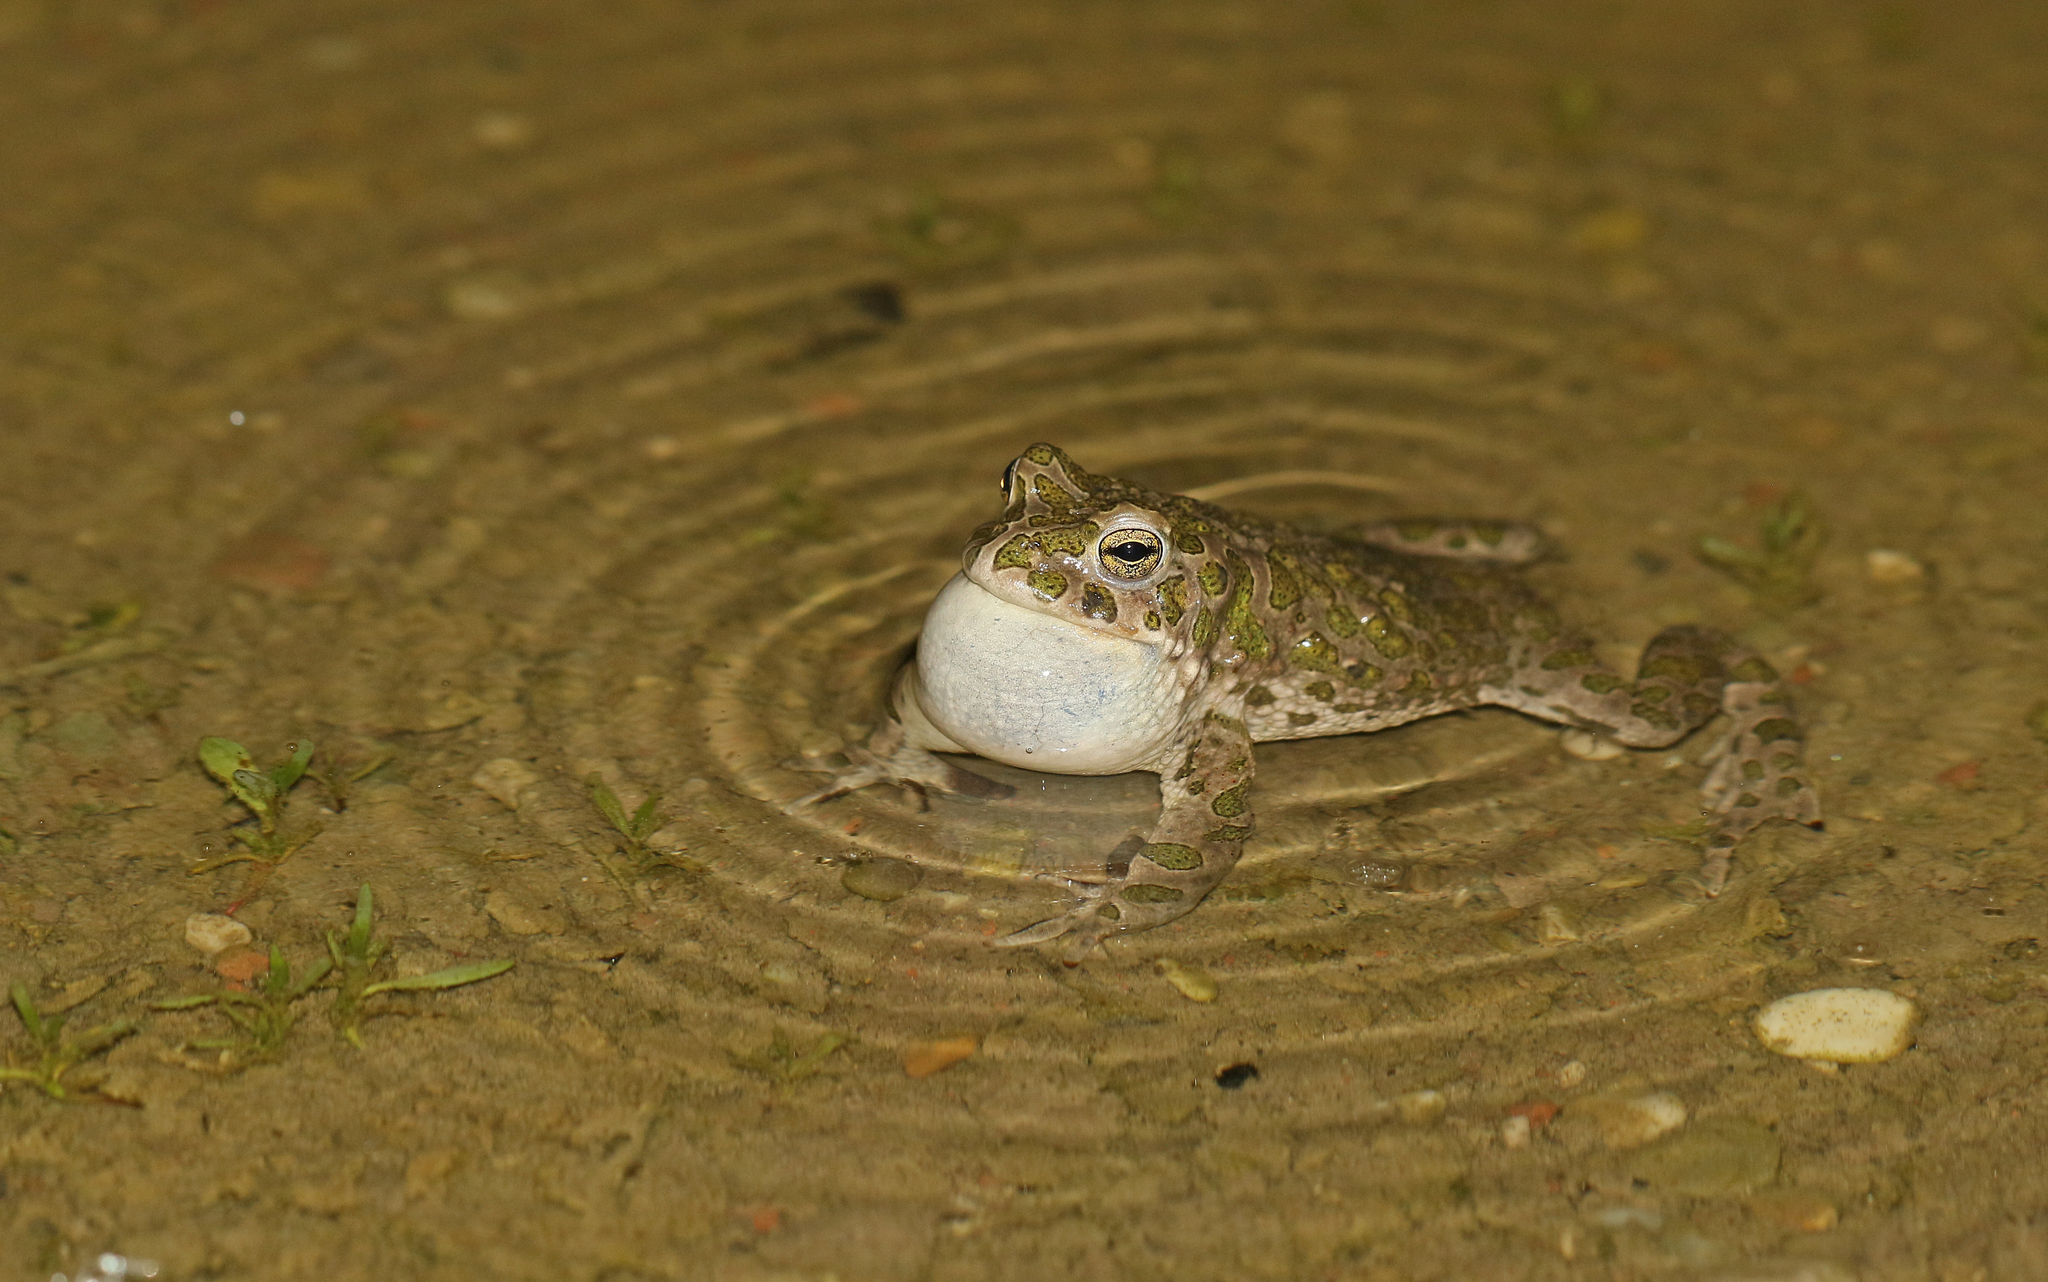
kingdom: Animalia
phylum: Chordata
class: Amphibia
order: Anura
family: Bufonidae
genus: Bufotes
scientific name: Bufotes viridis
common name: European green toad
